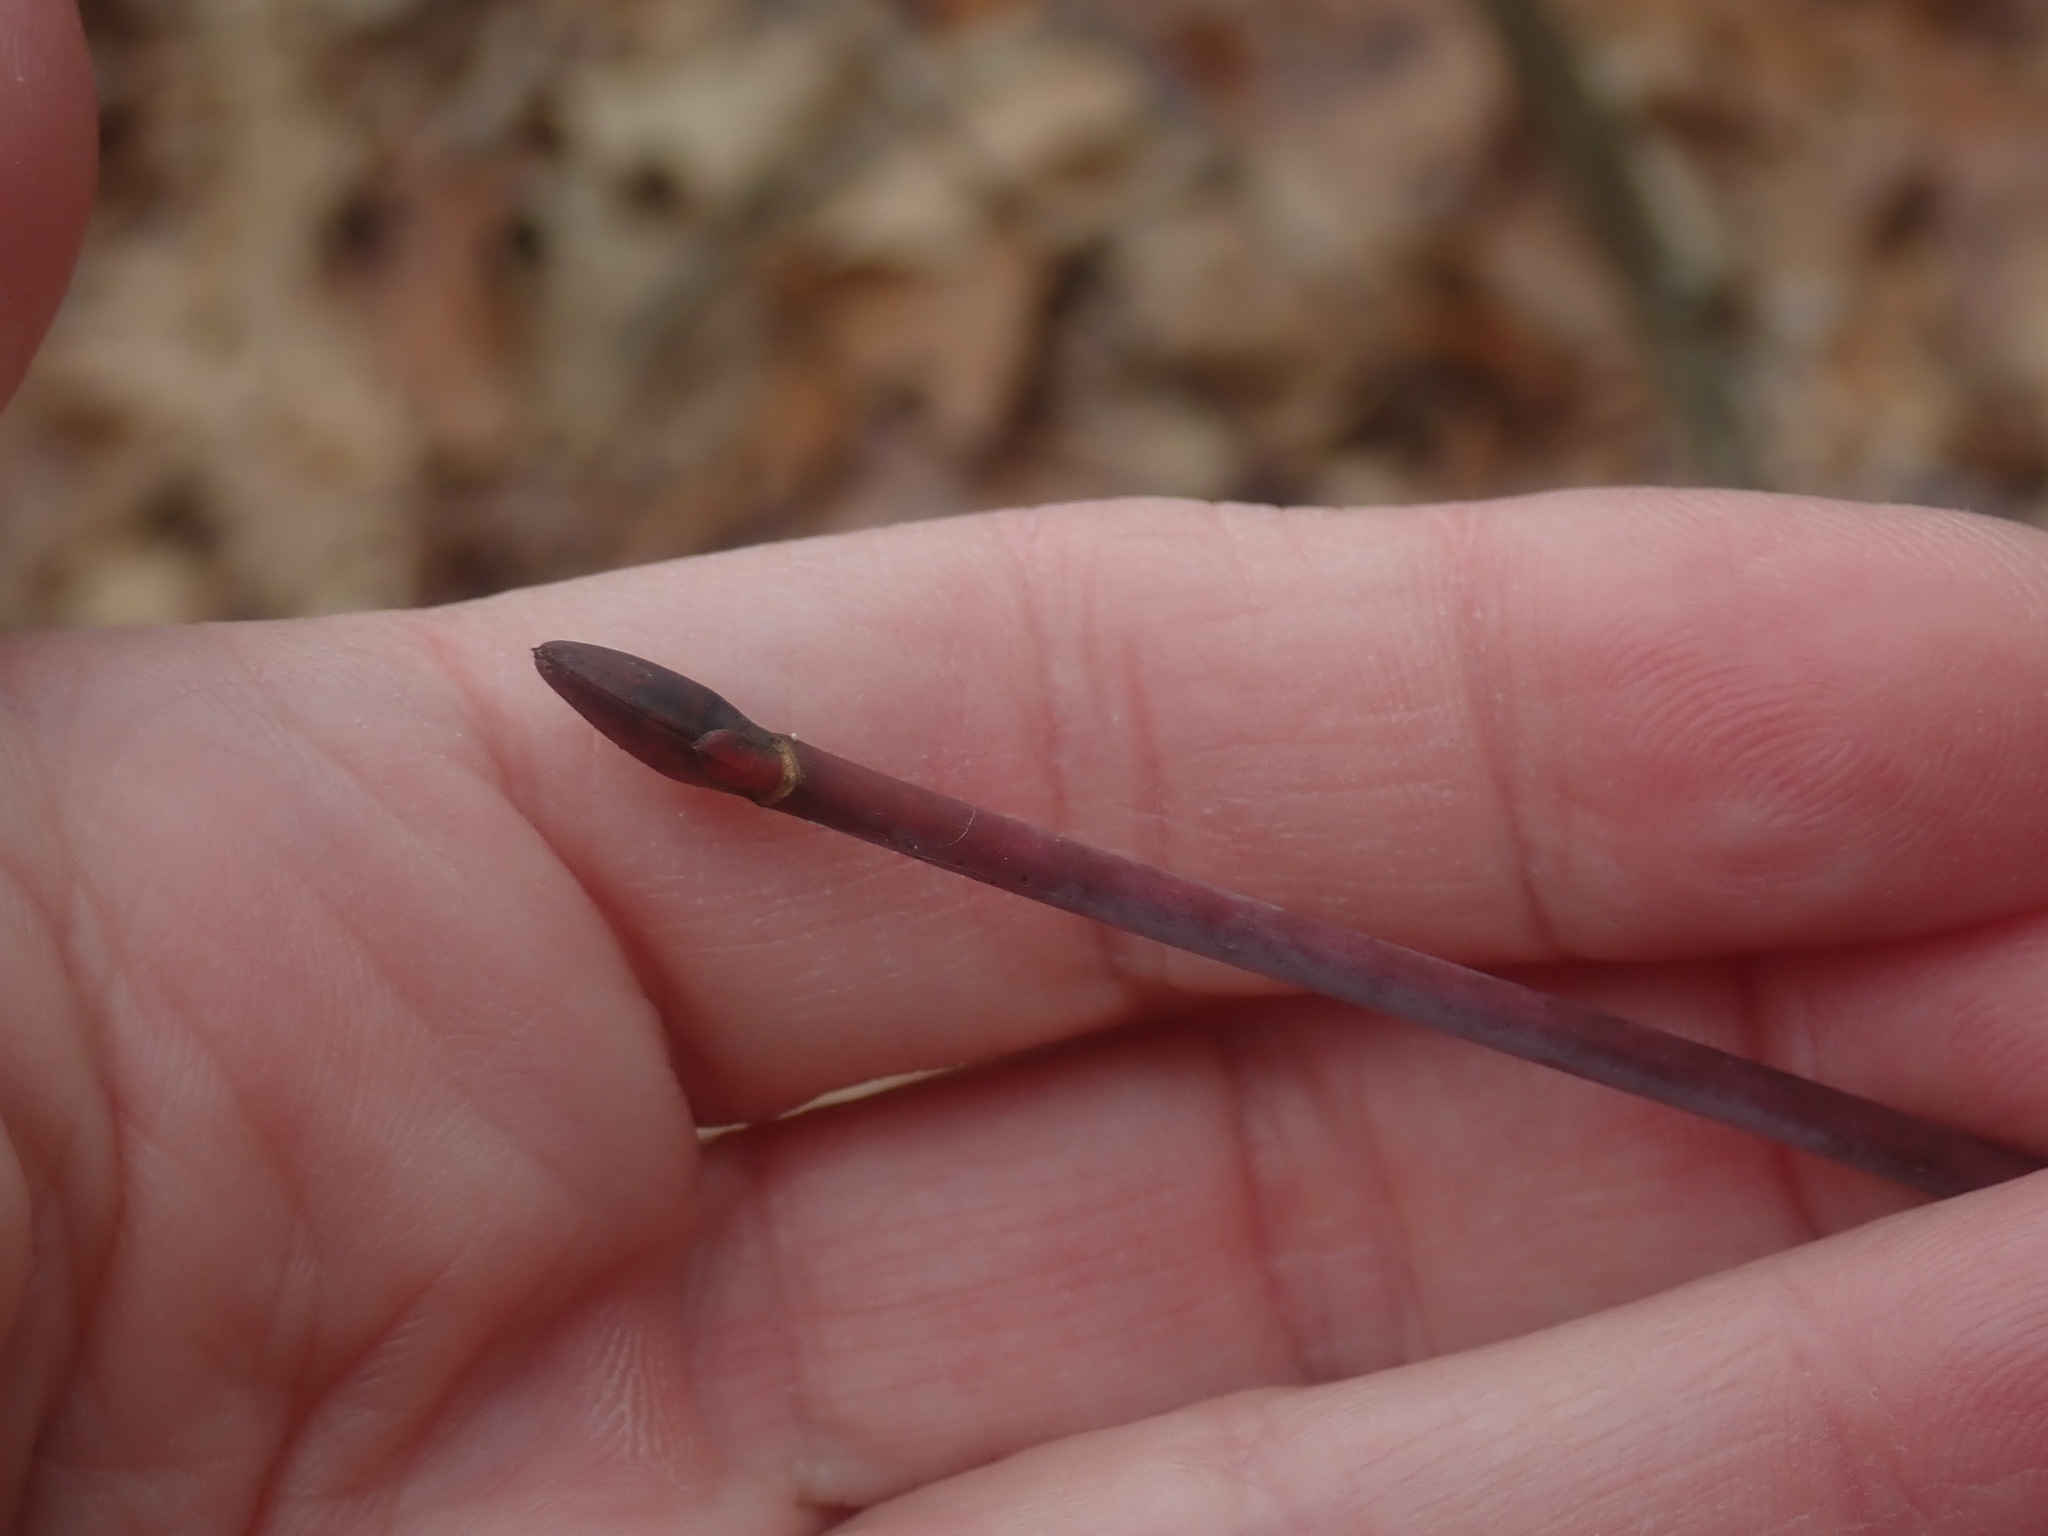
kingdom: Plantae
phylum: Tracheophyta
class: Magnoliopsida
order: Sapindales
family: Sapindaceae
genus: Acer
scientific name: Acer pensylvanicum
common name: Moosewood
